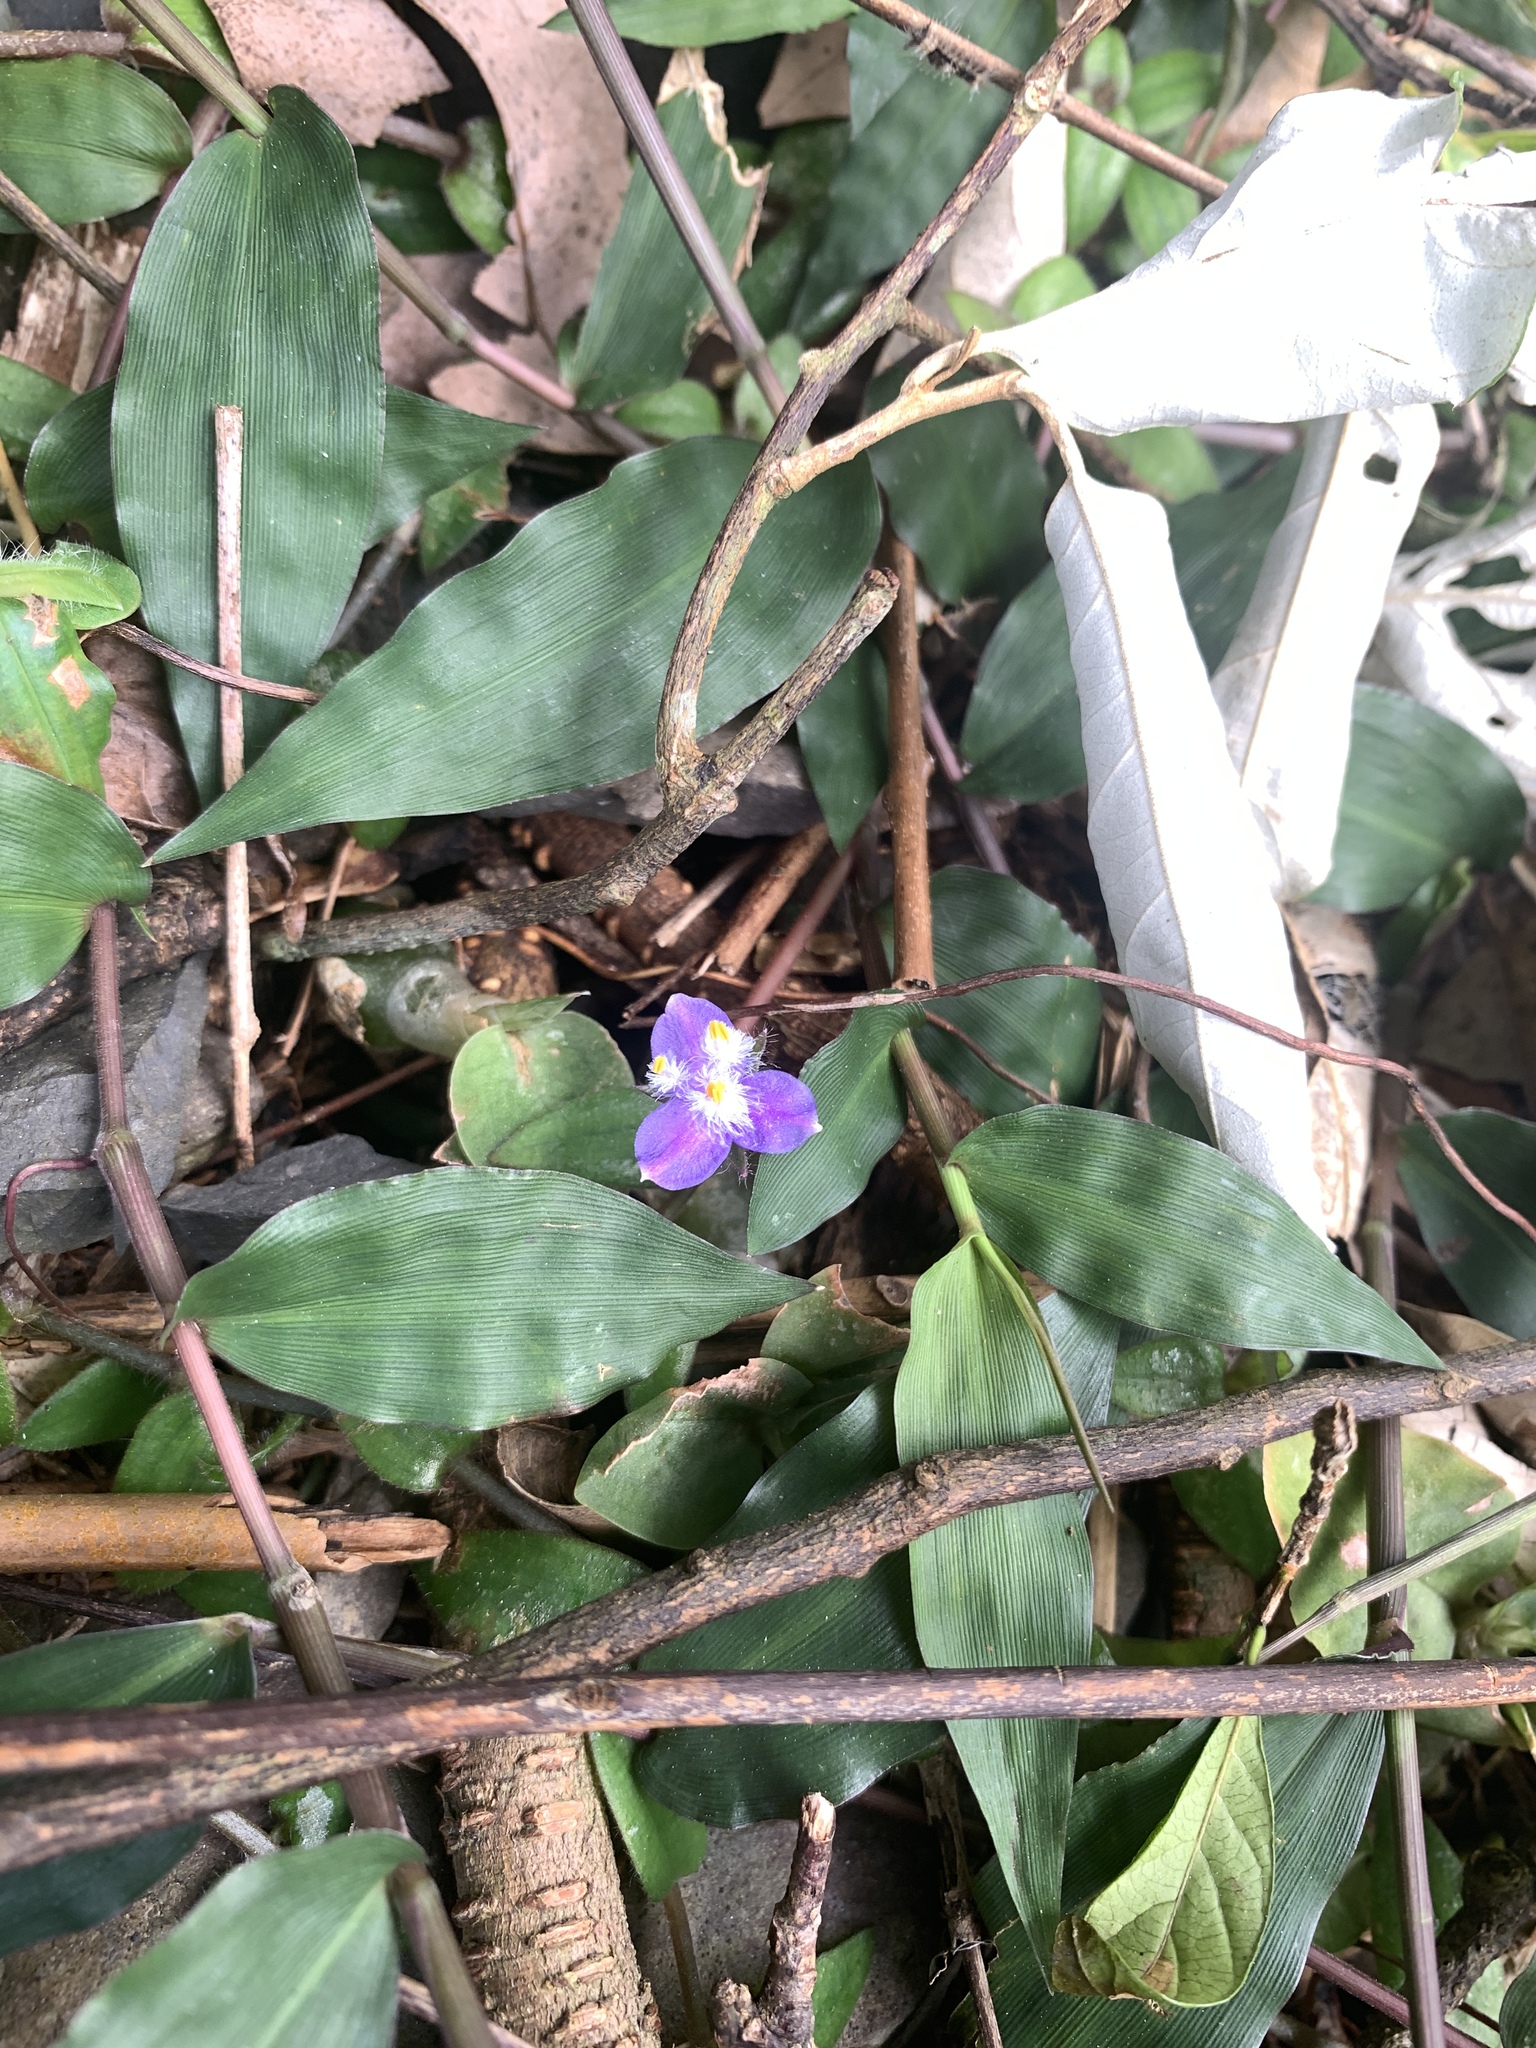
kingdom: Plantae
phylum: Tracheophyta
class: Liliopsida
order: Commelinales
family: Commelinaceae
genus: Cyanotis
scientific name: Cyanotis kawakamii
